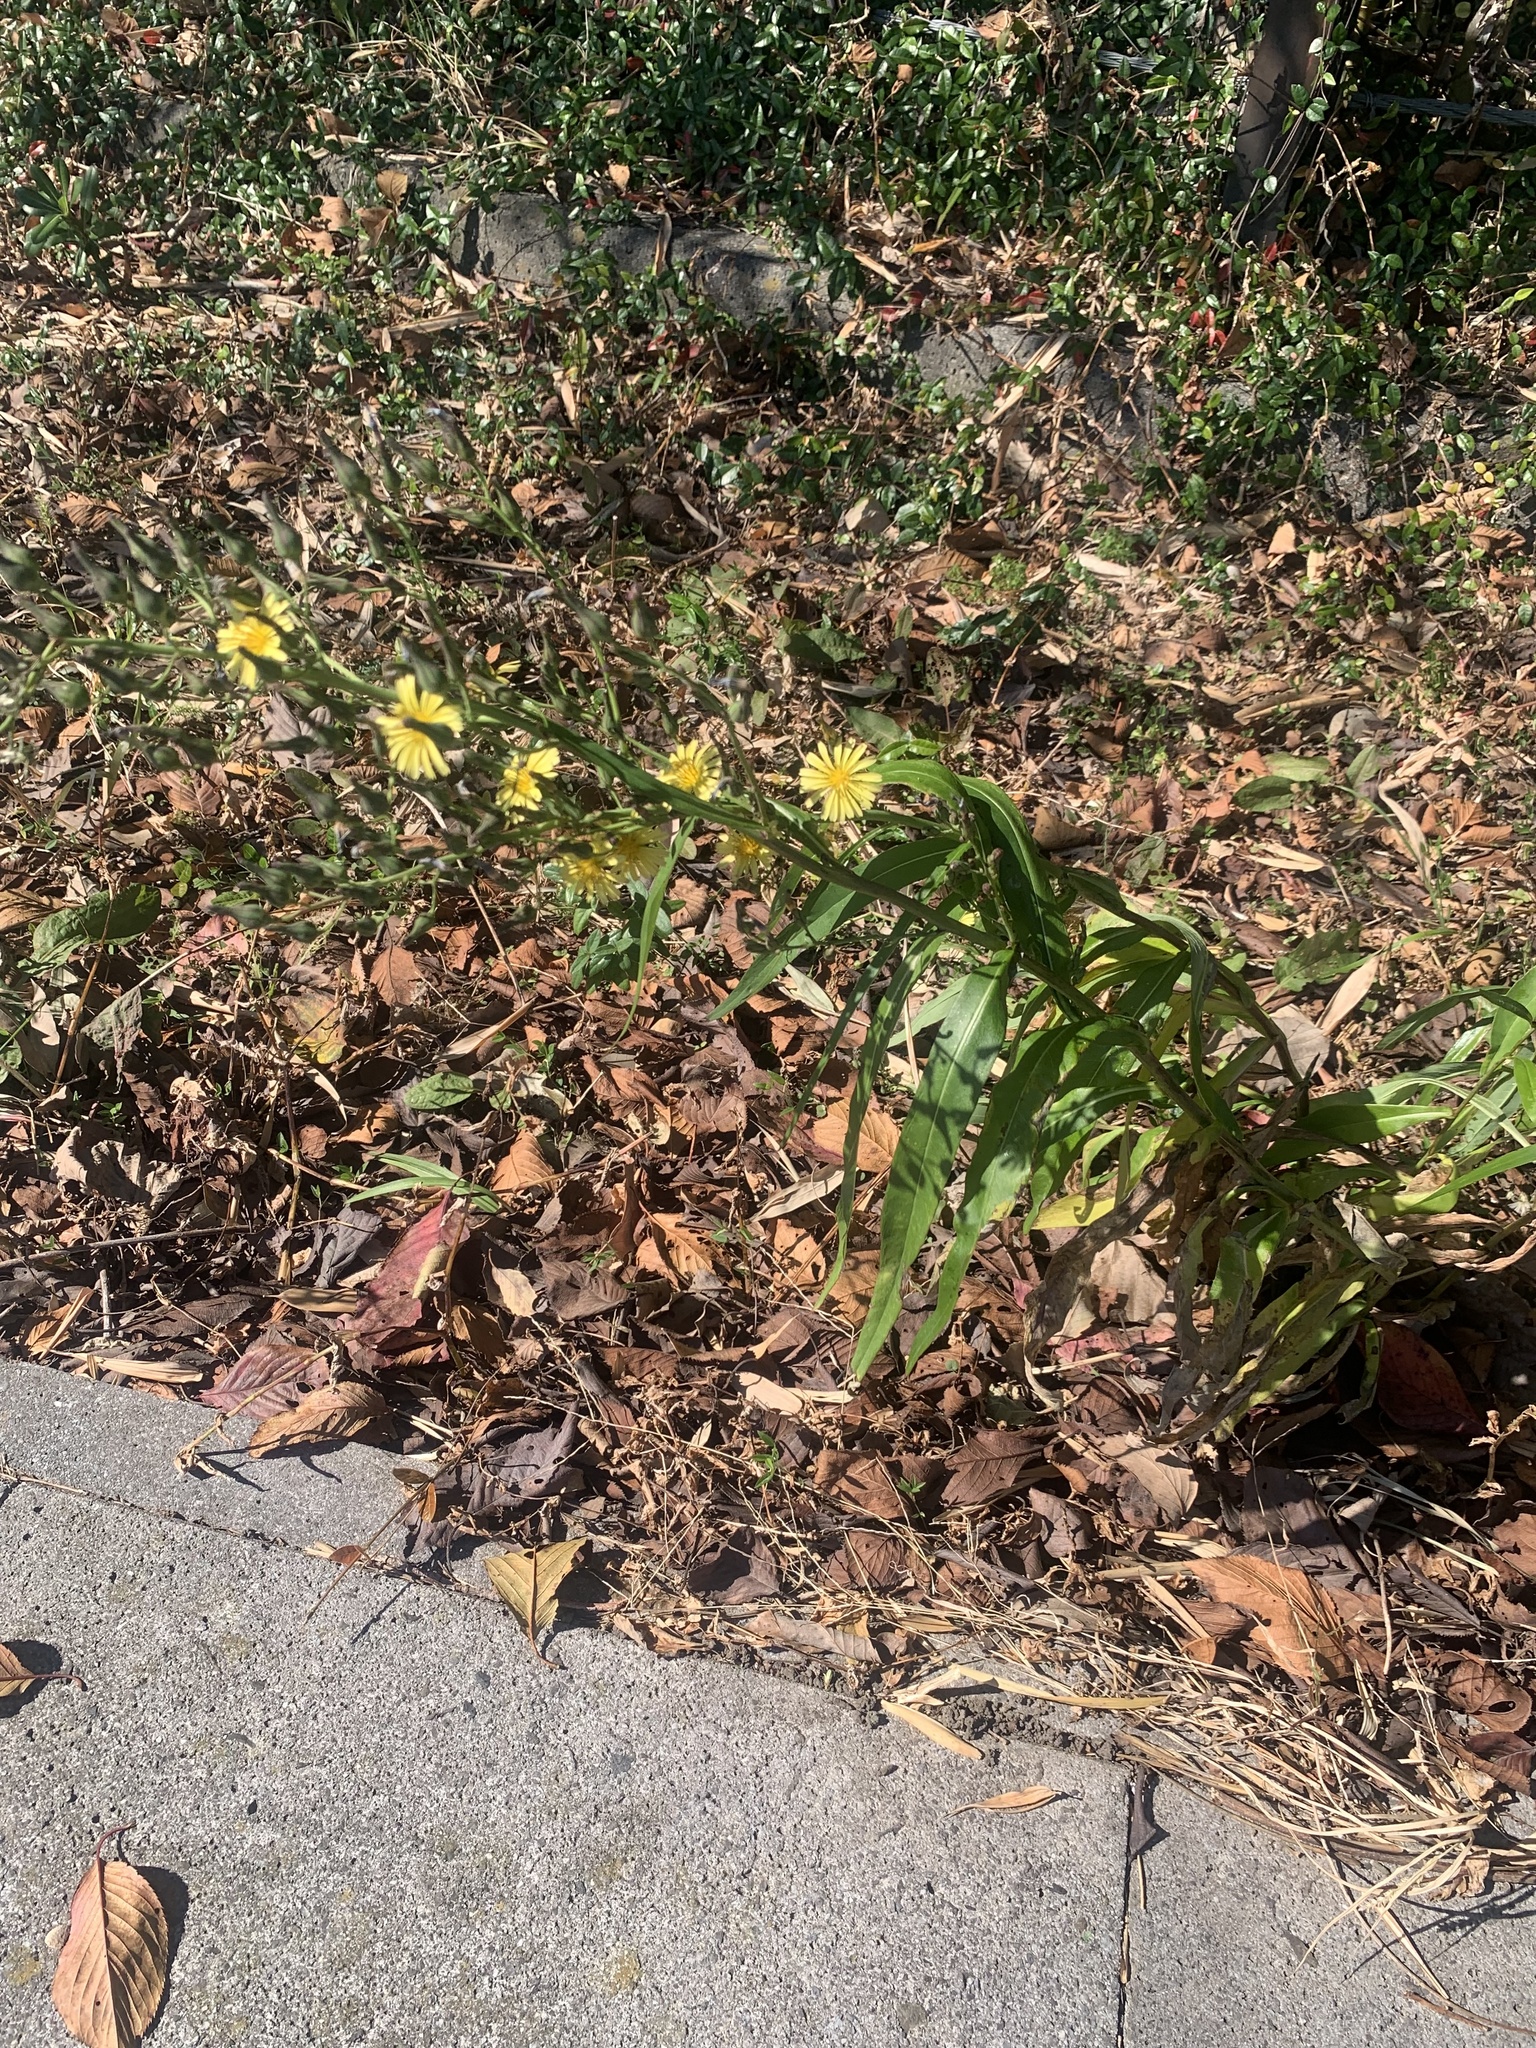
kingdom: Plantae
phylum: Tracheophyta
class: Magnoliopsida
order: Asterales
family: Asteraceae
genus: Lactuca
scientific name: Lactuca indica
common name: Wild lettuce
